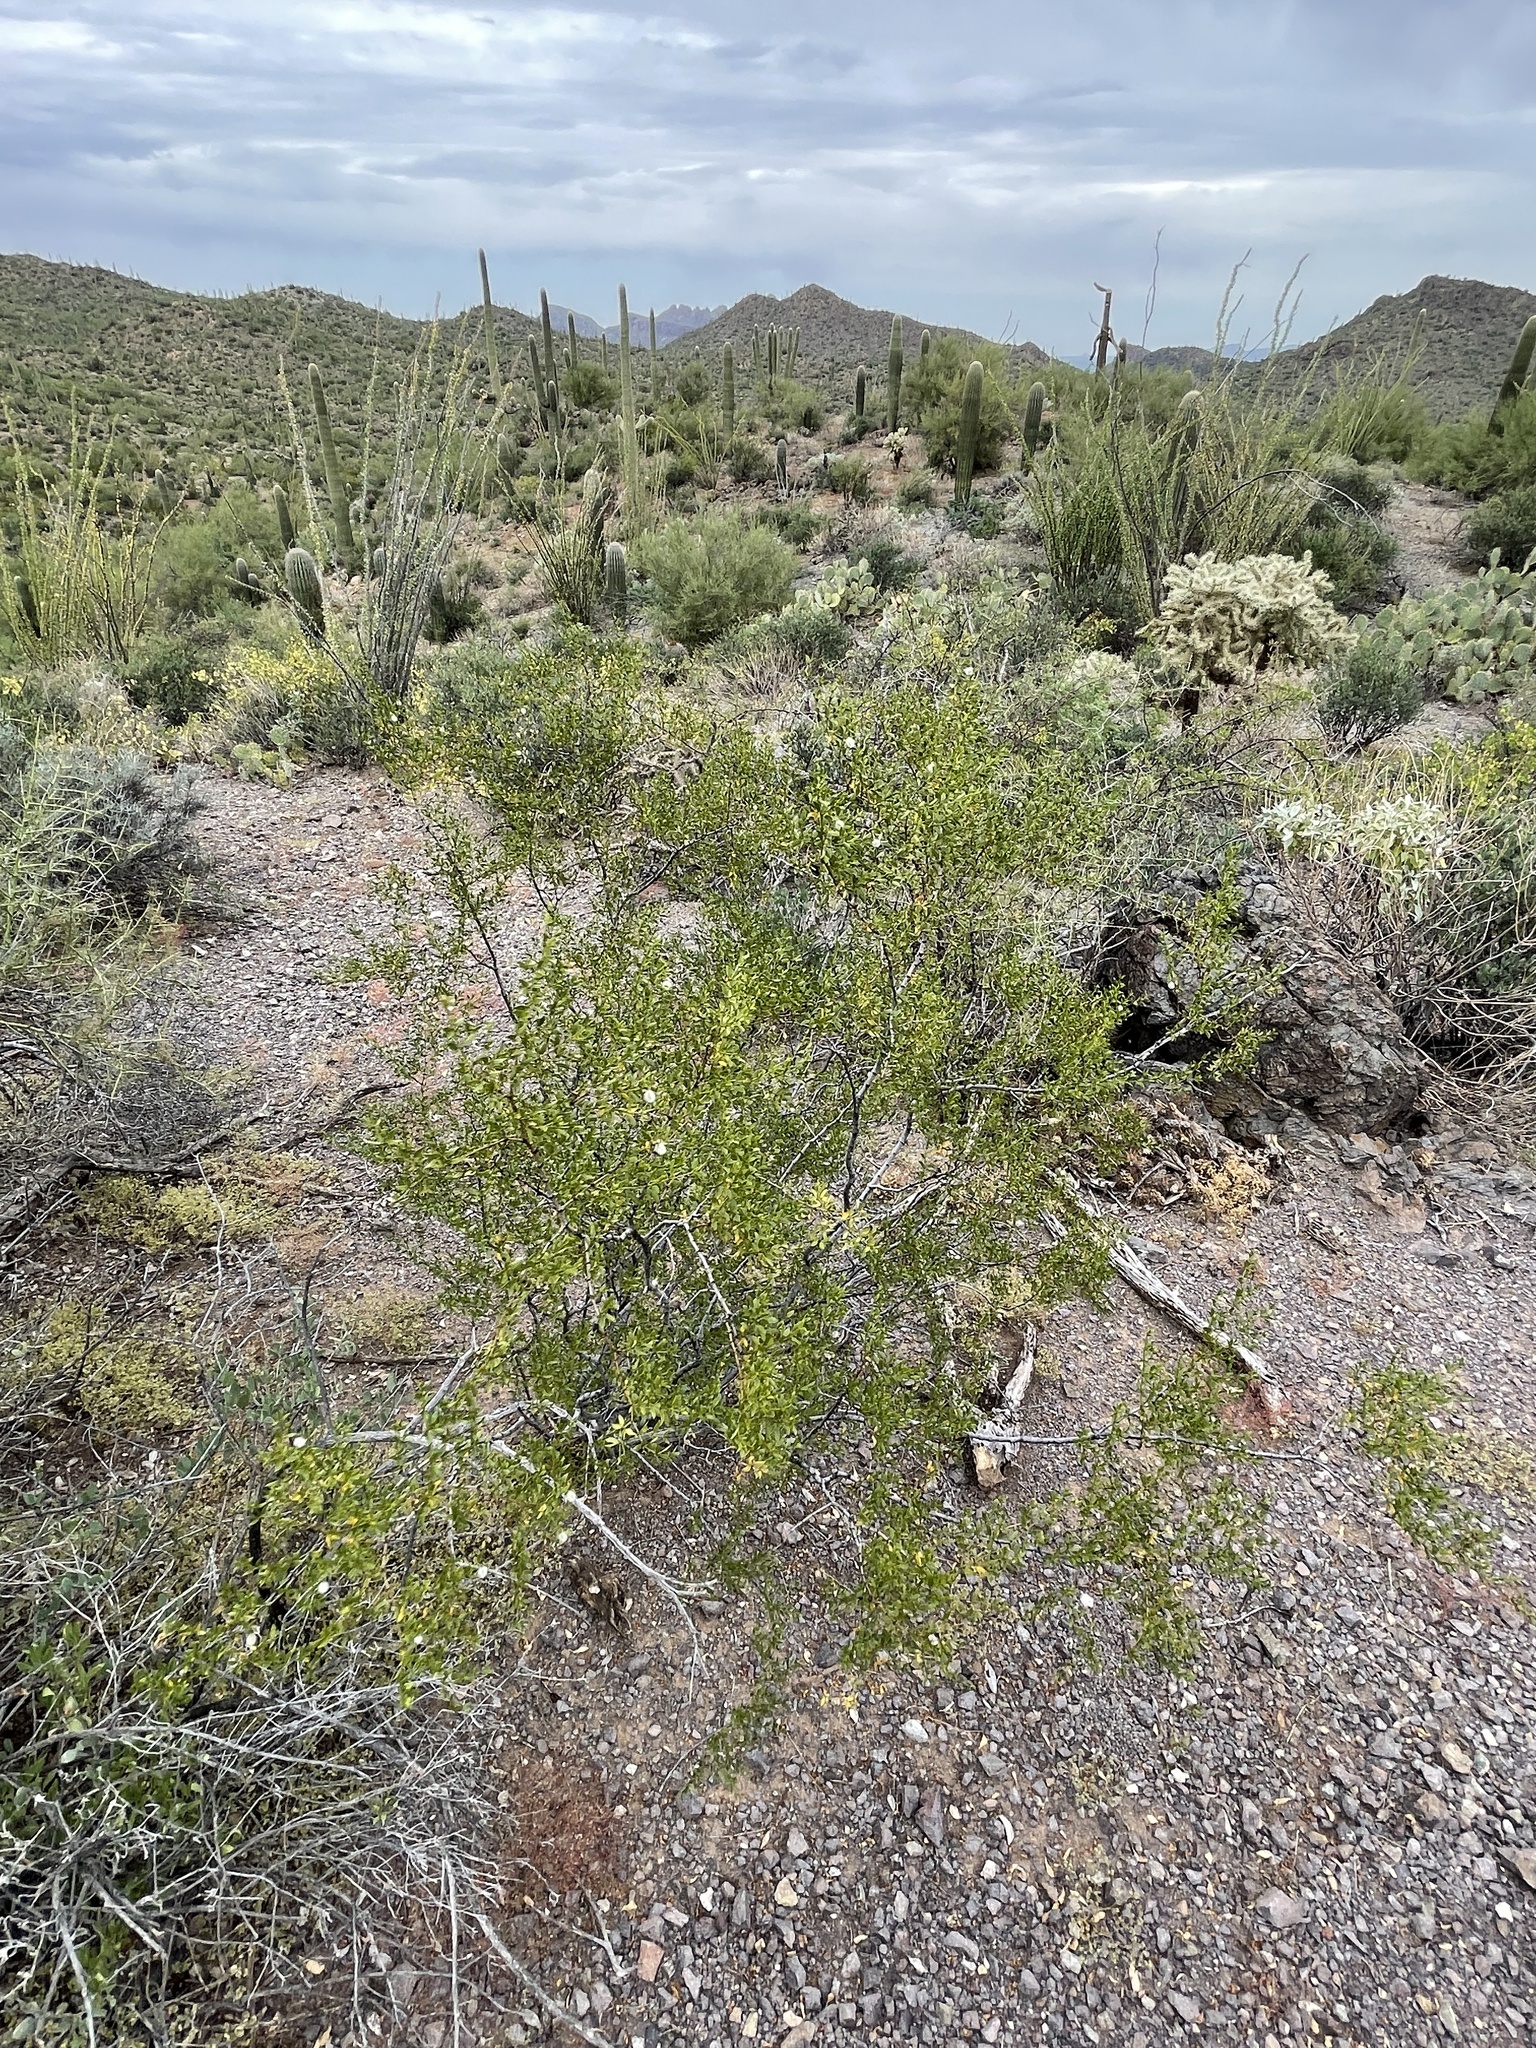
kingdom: Plantae
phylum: Tracheophyta
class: Magnoliopsida
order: Zygophyllales
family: Zygophyllaceae
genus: Larrea
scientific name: Larrea tridentata
